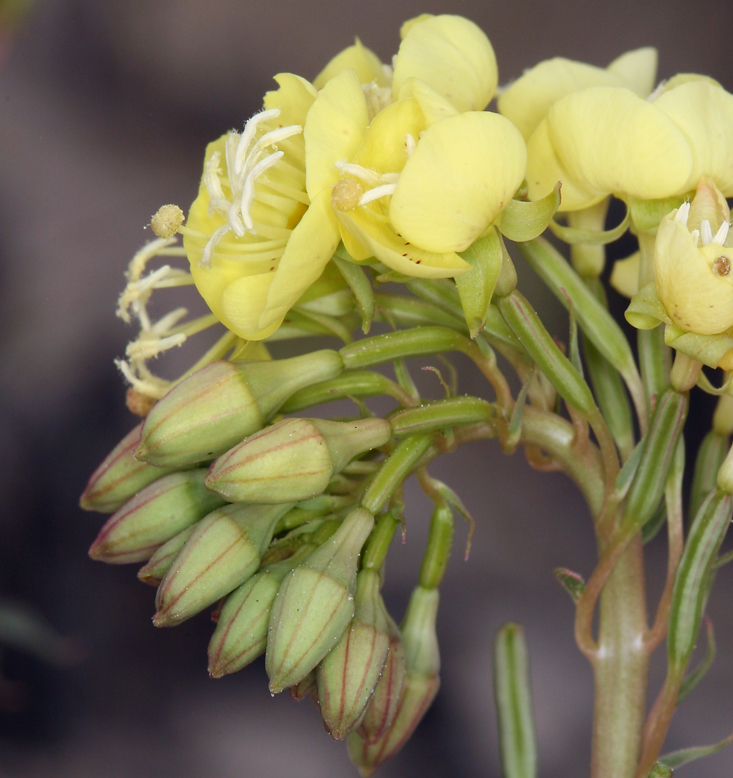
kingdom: Plantae
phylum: Tracheophyta
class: Magnoliopsida
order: Myrtales
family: Onagraceae
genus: Chylismia
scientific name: Chylismia claviformis
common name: Browneyes
